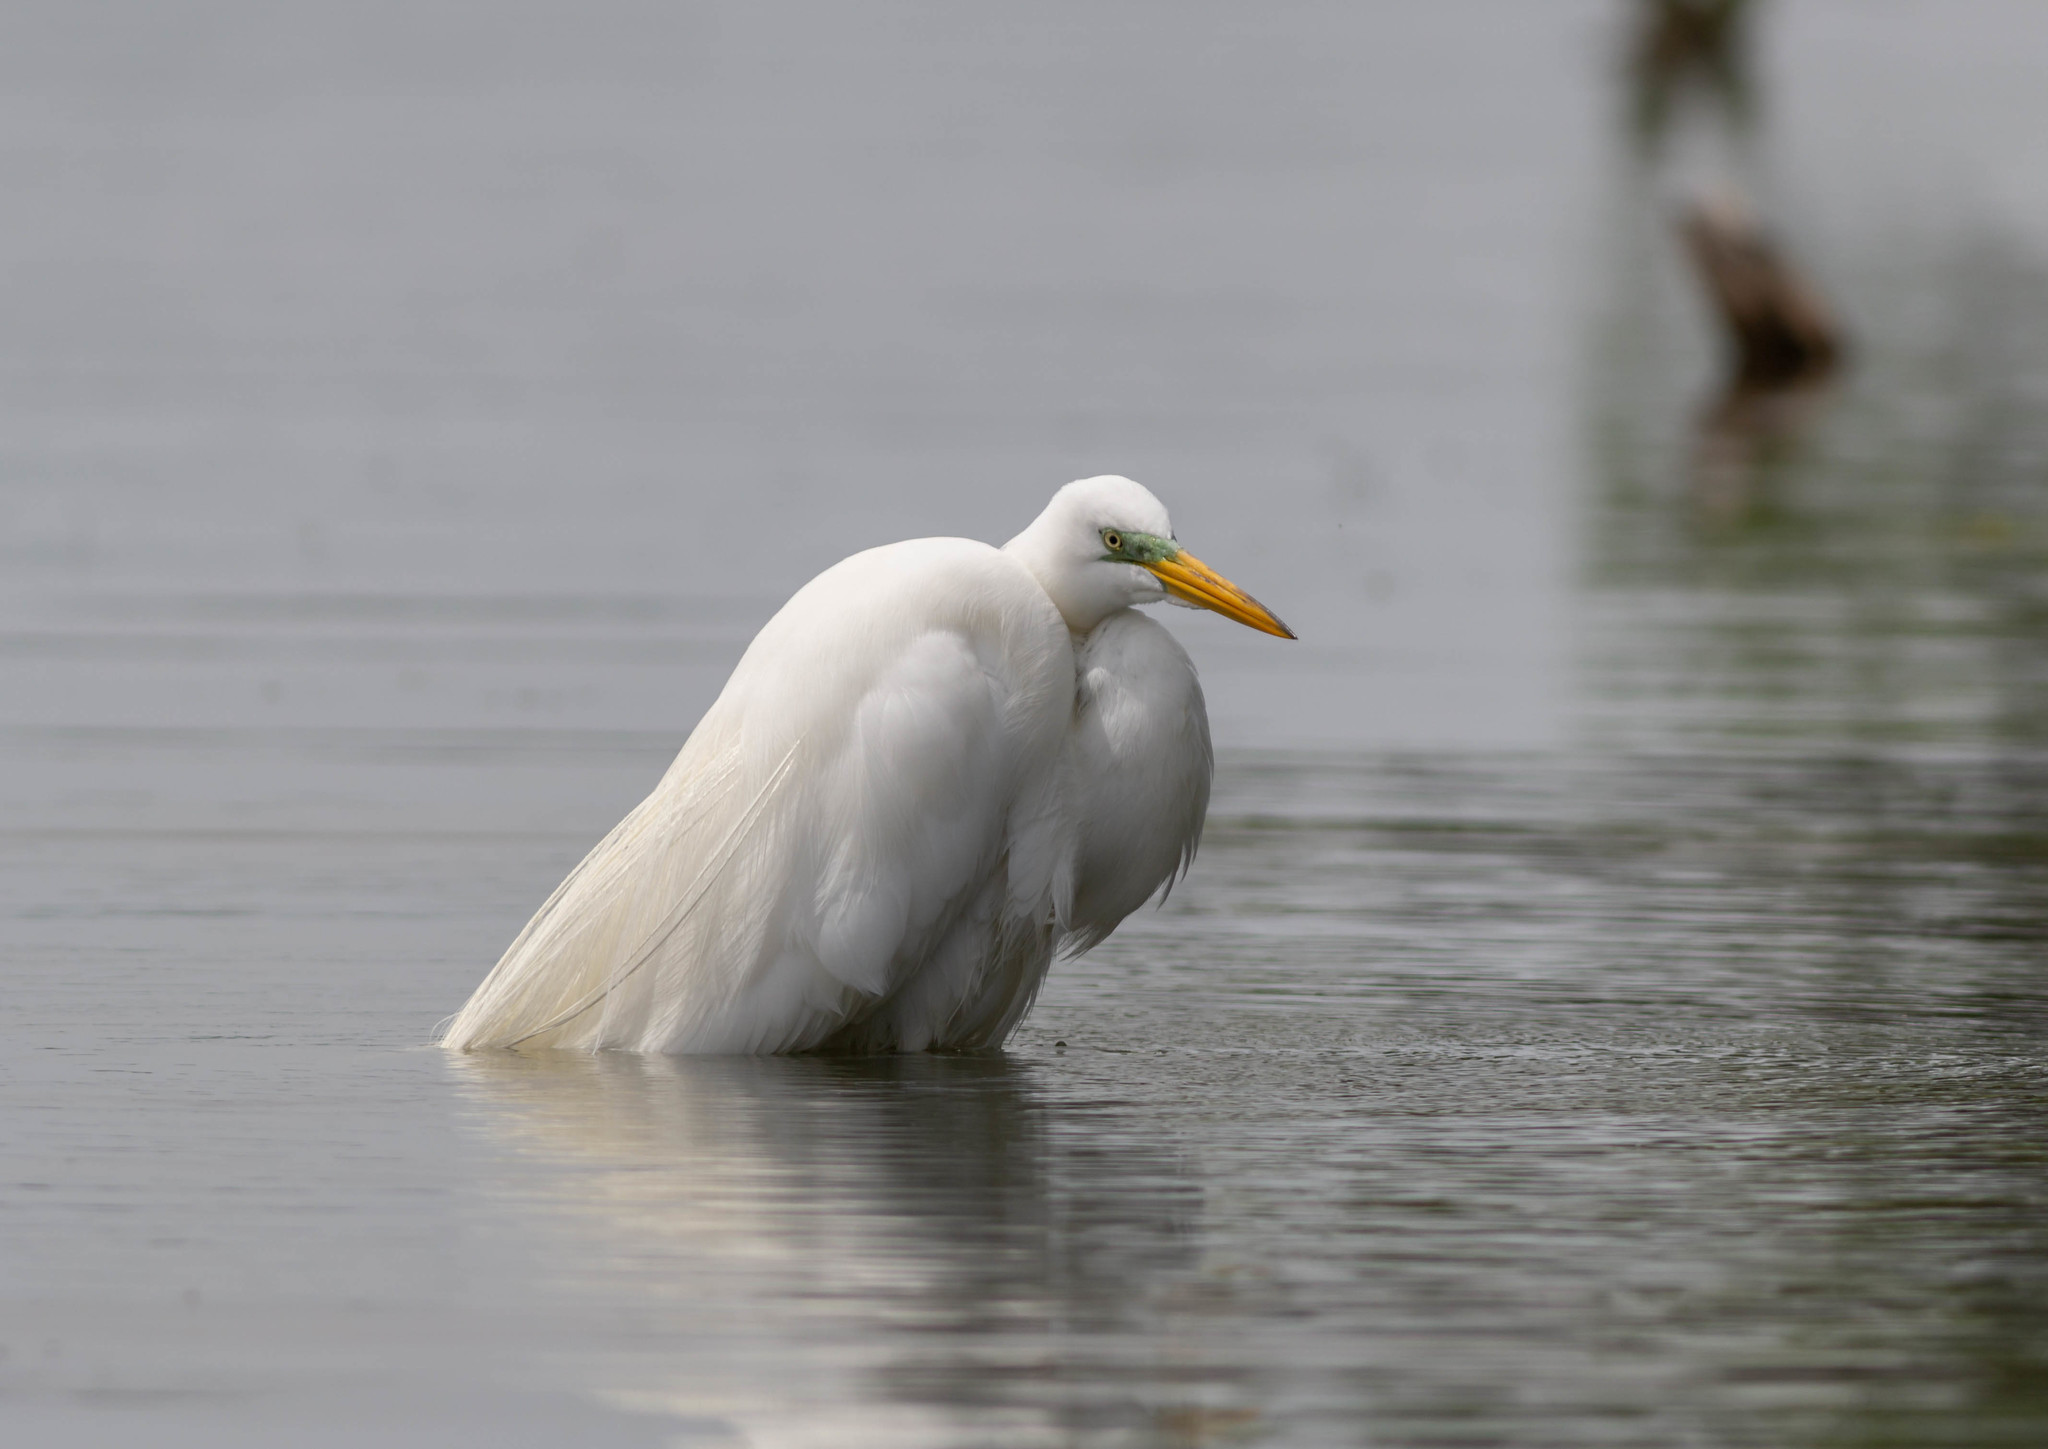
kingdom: Animalia
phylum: Chordata
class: Aves
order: Pelecaniformes
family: Ardeidae
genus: Ardea
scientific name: Ardea alba
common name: Great egret
